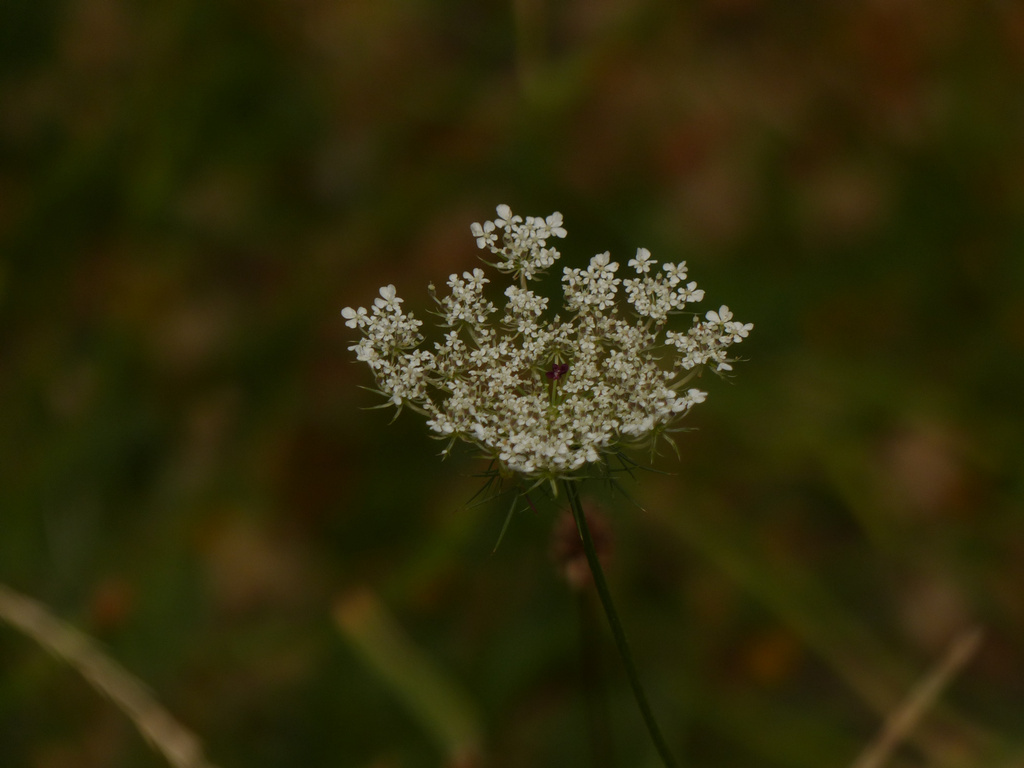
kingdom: Plantae
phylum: Tracheophyta
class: Magnoliopsida
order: Apiales
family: Apiaceae
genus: Daucus
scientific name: Daucus carota
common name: Wild carrot
